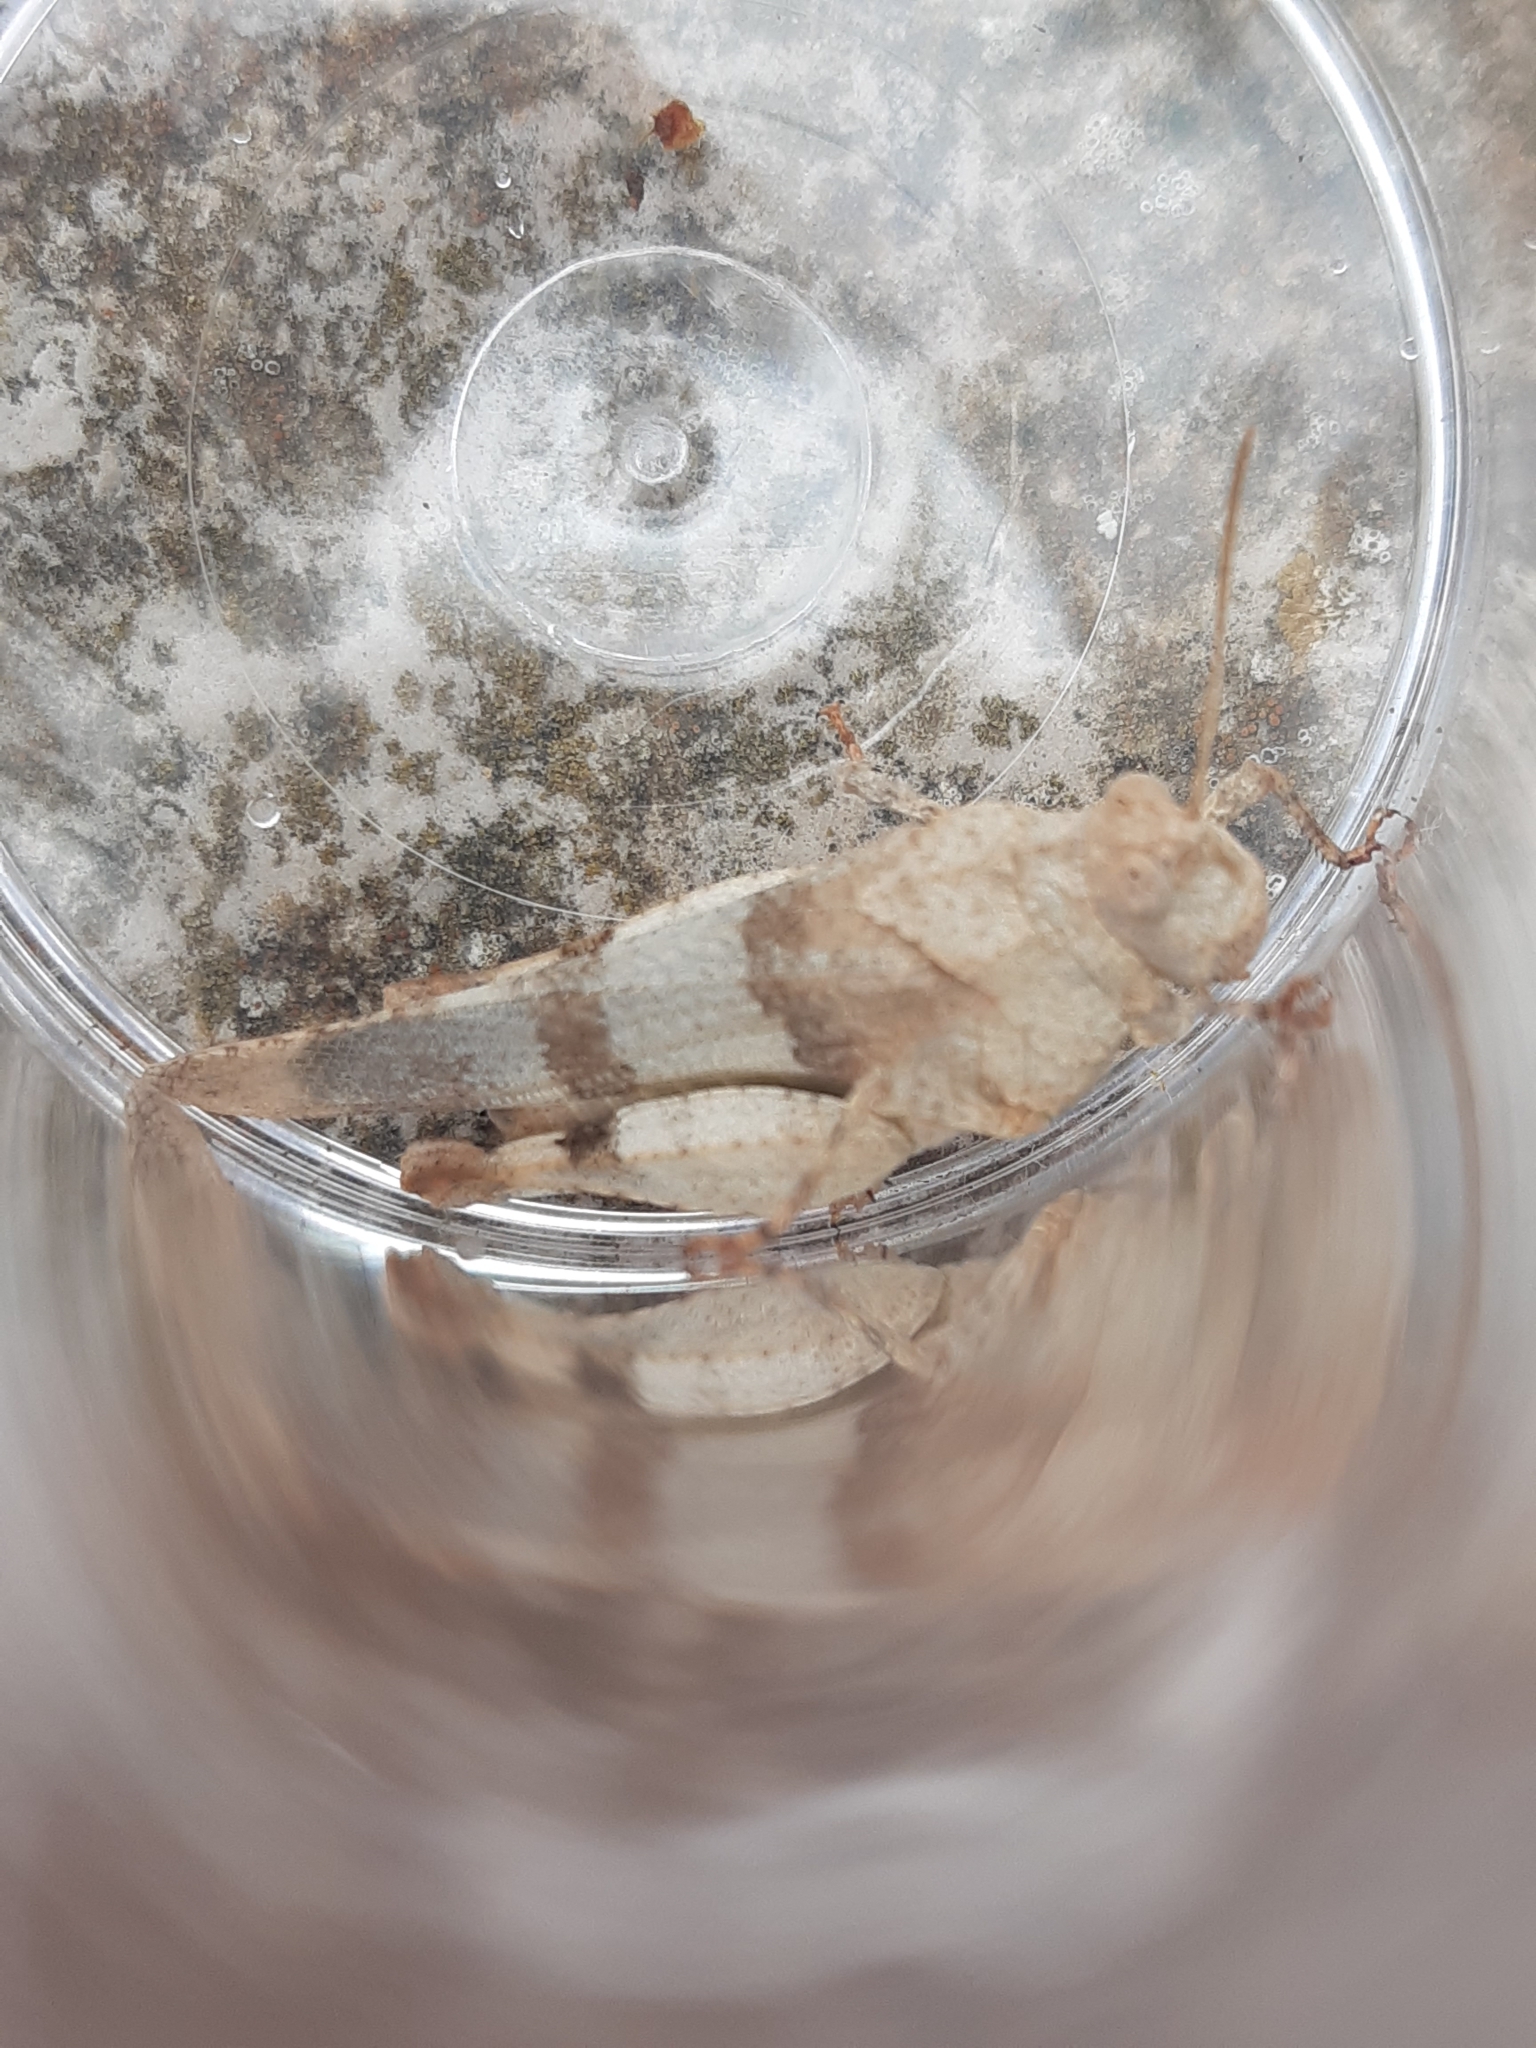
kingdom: Animalia
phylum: Arthropoda
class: Insecta
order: Orthoptera
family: Acrididae
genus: Oedipoda
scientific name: Oedipoda caerulescens
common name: Blue-winged grasshopper
